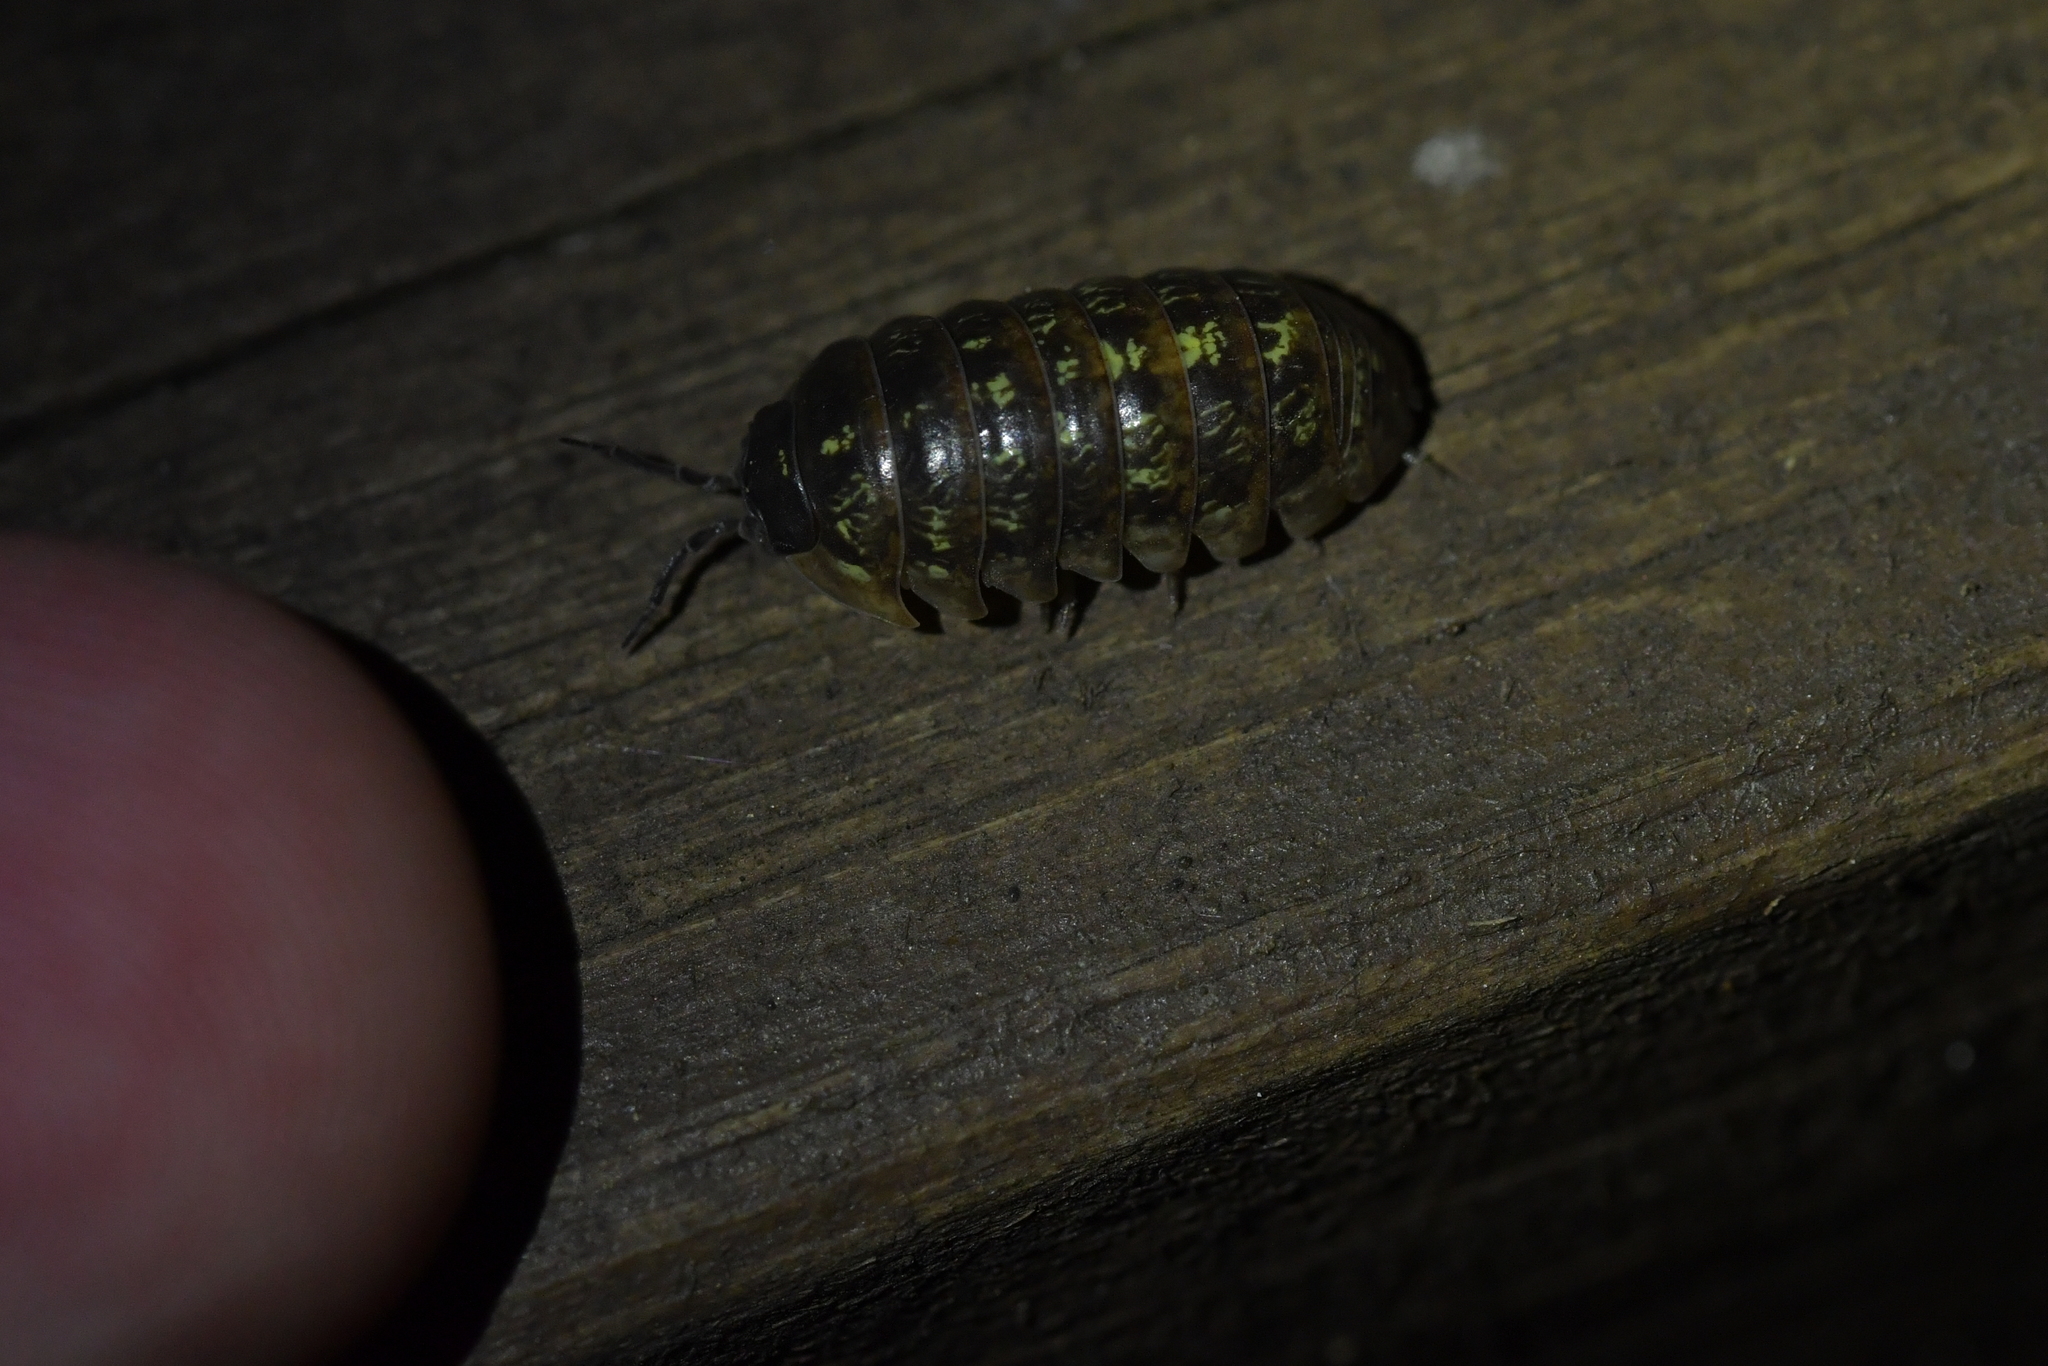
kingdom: Animalia
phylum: Arthropoda
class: Malacostraca
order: Isopoda
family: Armadillidiidae
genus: Armadillidium
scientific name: Armadillidium vulgare
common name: Common pill woodlouse
